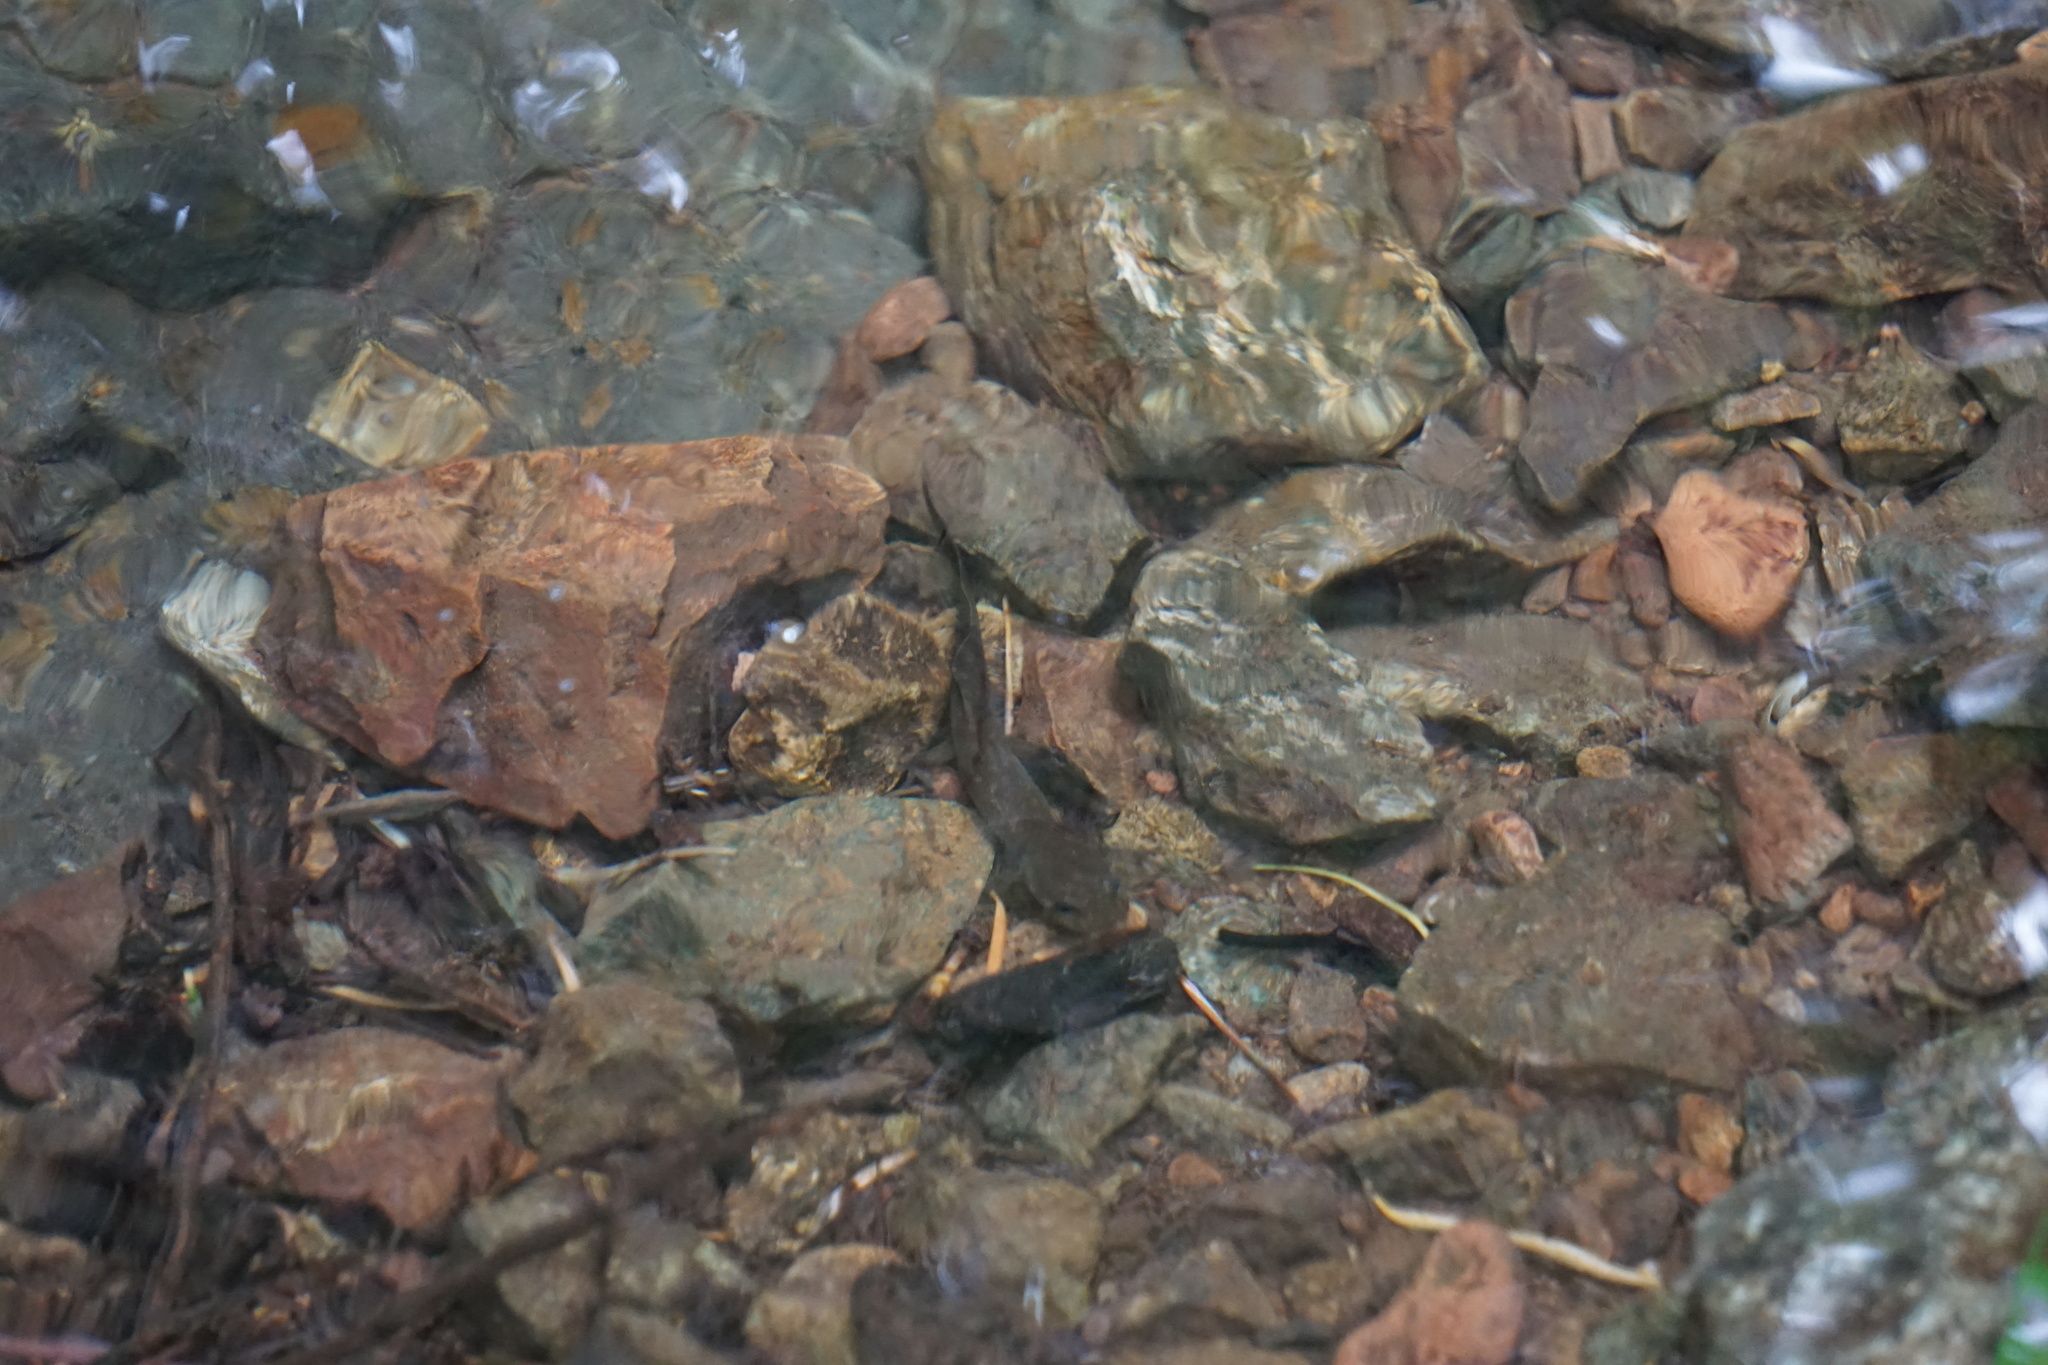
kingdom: Animalia
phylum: Chordata
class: Amphibia
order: Caudata
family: Ambystomatidae
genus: Dicamptodon
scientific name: Dicamptodon ensatus
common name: California giant salamander
